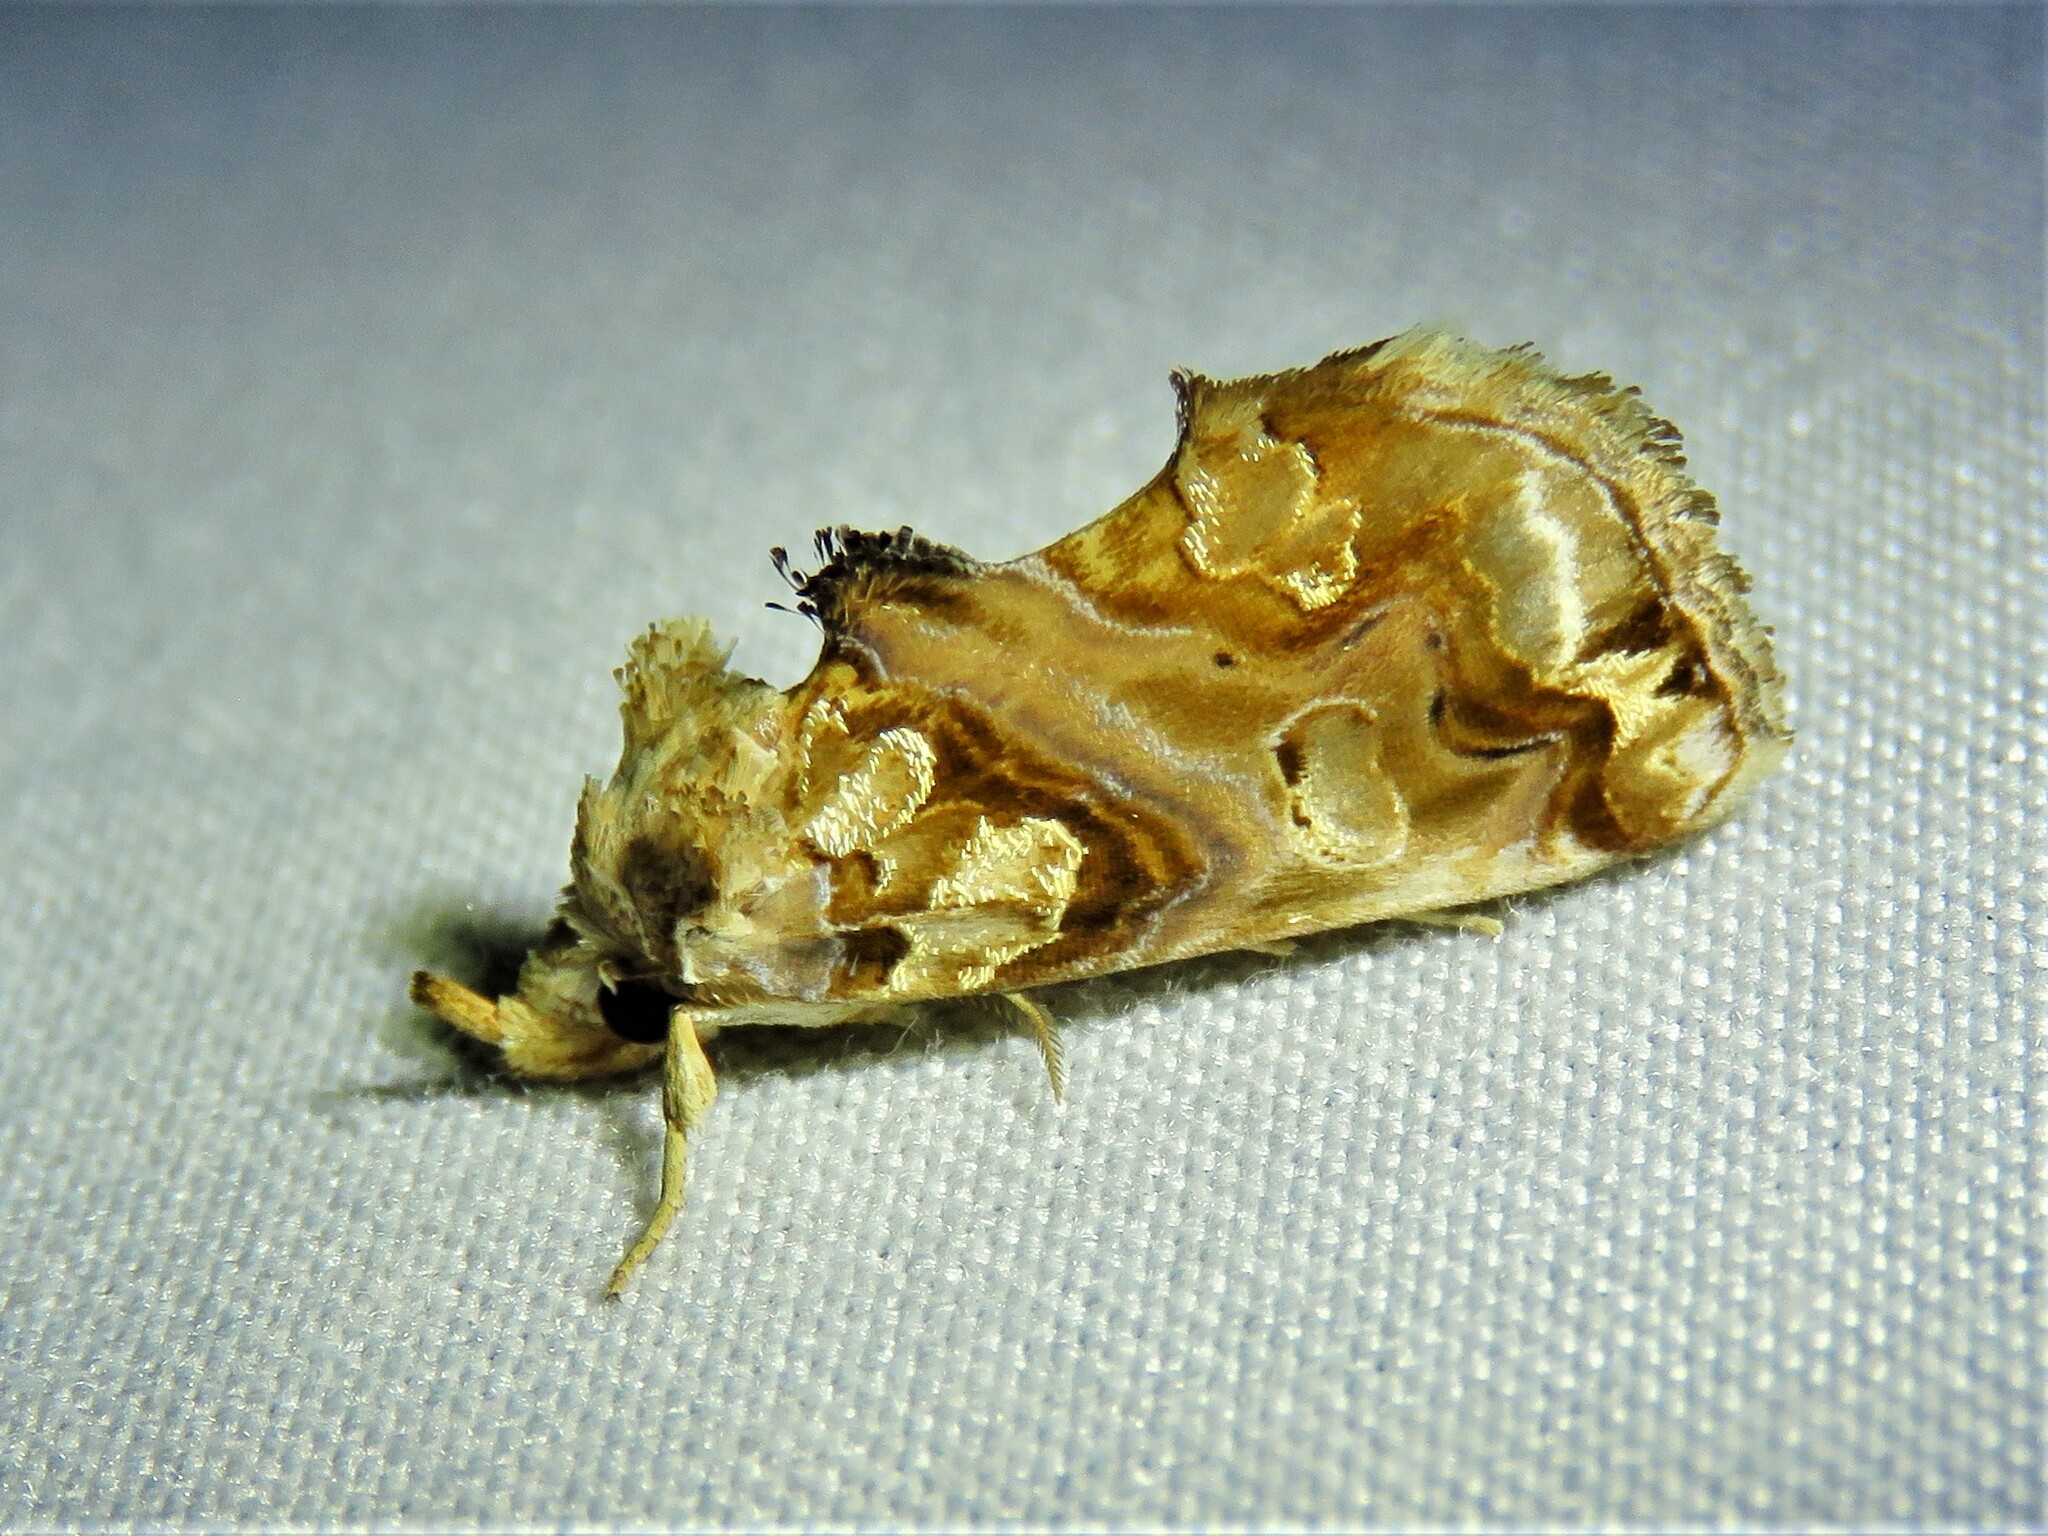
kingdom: Animalia
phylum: Arthropoda
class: Insecta
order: Lepidoptera
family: Erebidae
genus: Plusiodonta
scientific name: Plusiodonta compressipalpis
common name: Moonseed moth
